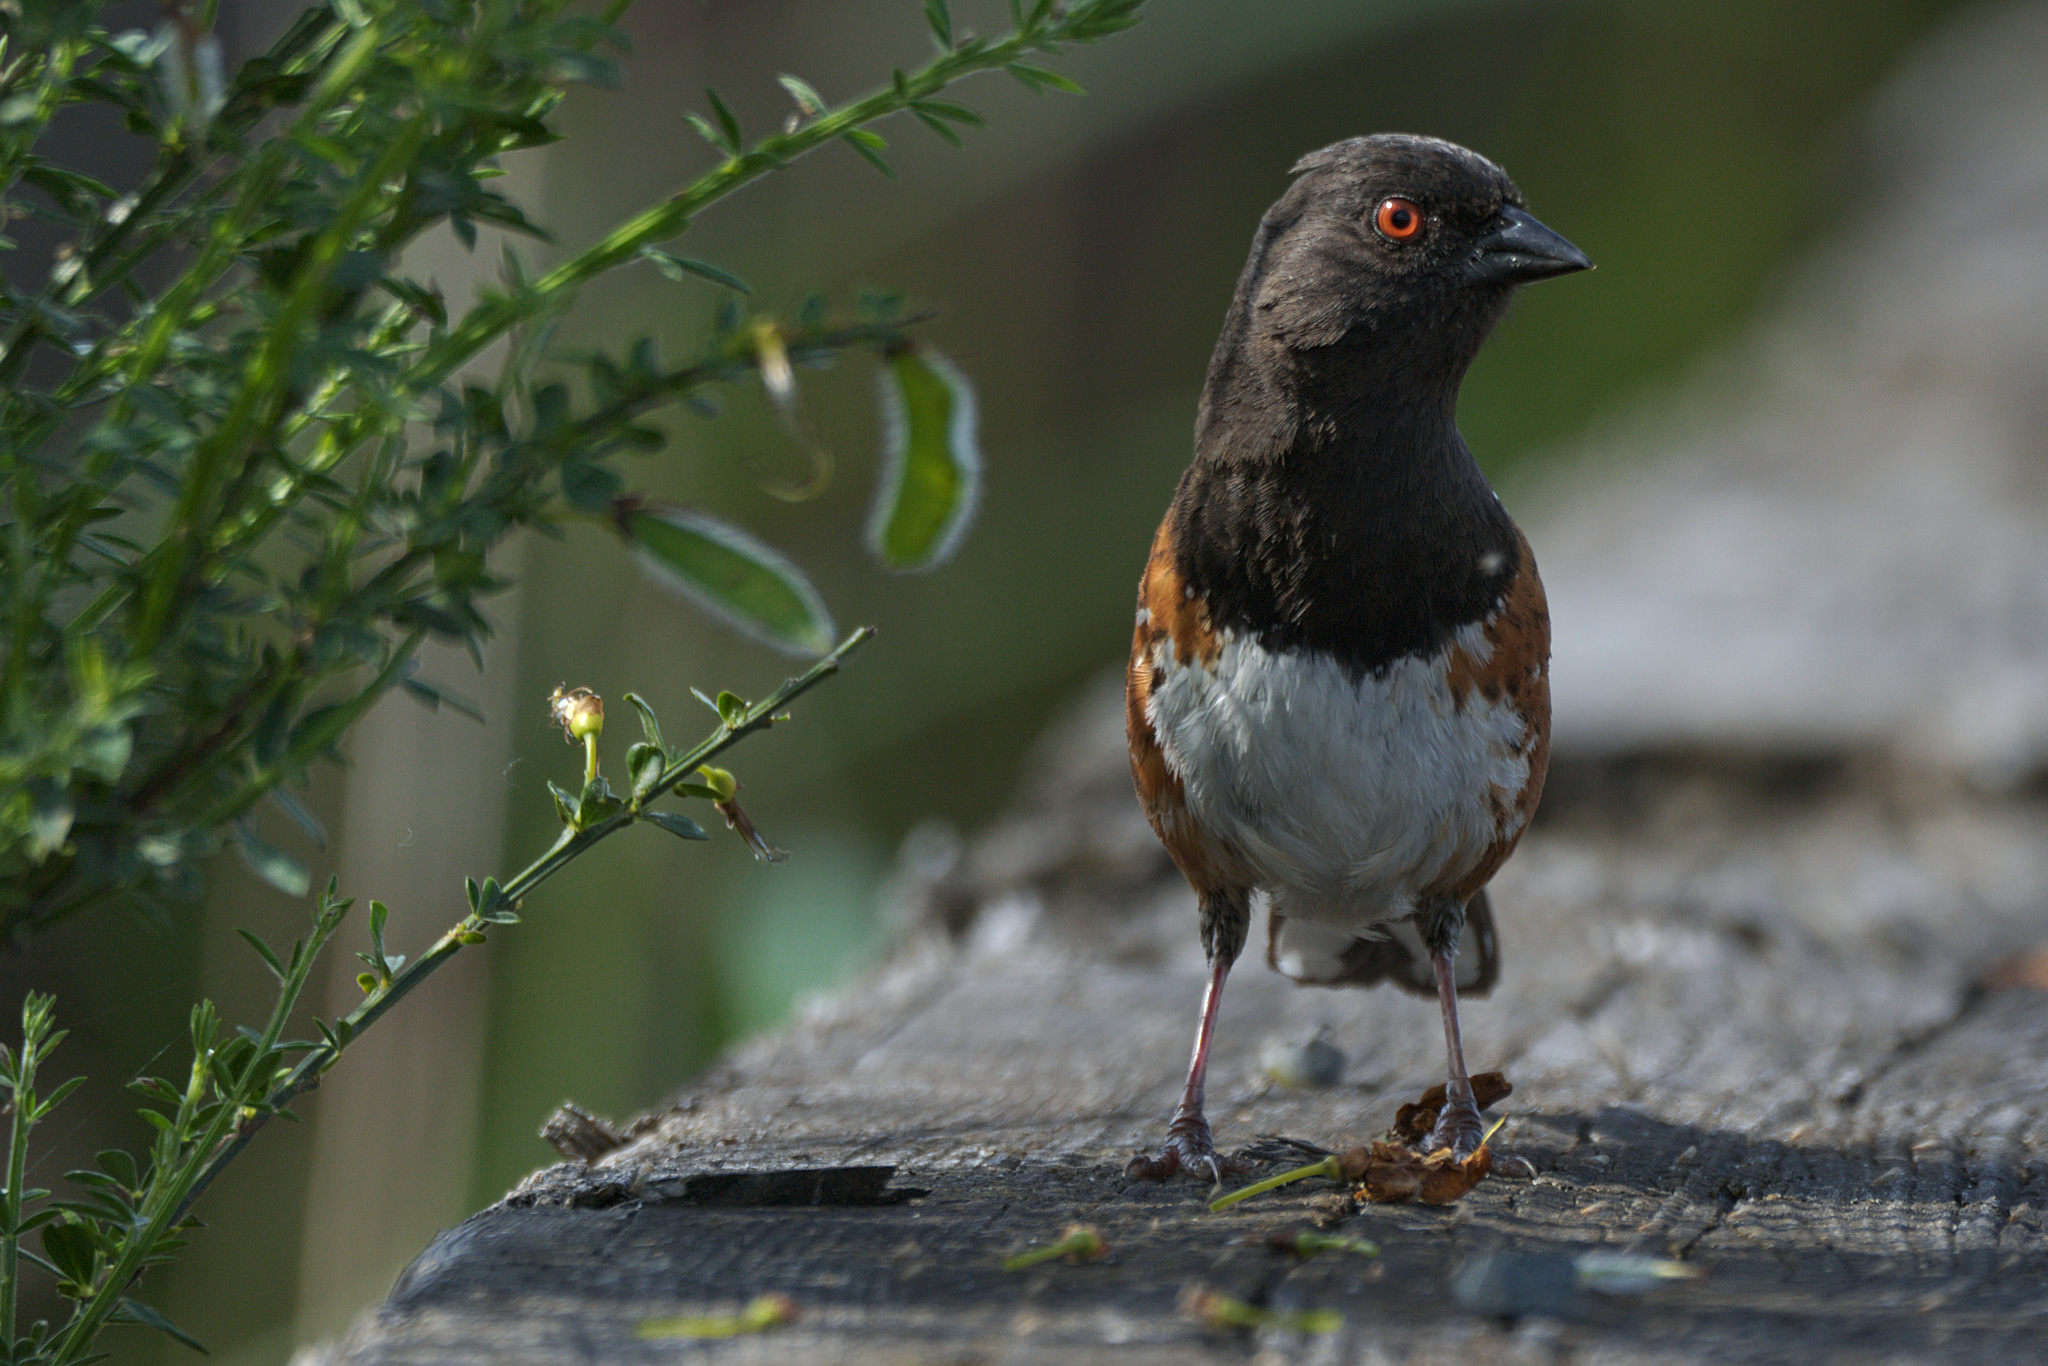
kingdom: Animalia
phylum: Chordata
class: Aves
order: Passeriformes
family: Passerellidae
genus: Pipilo
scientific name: Pipilo maculatus
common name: Spotted towhee
